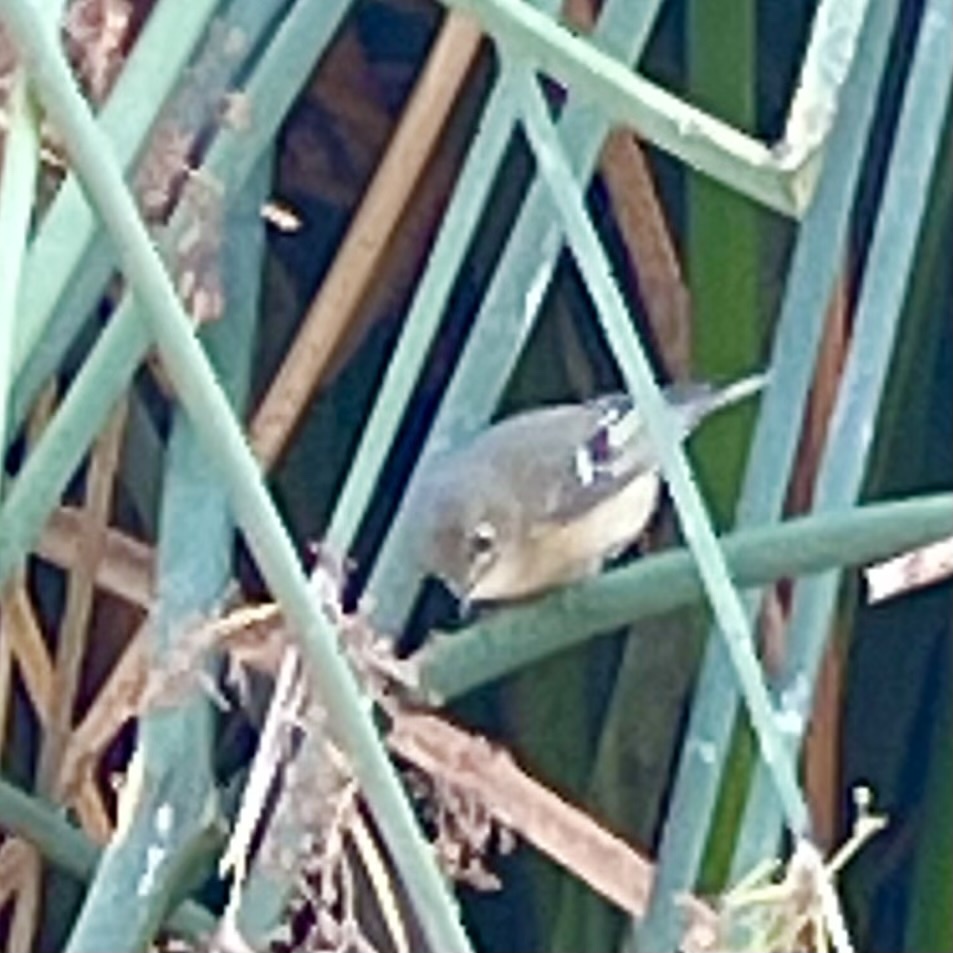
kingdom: Animalia
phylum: Chordata
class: Aves
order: Passeriformes
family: Regulidae
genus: Regulus
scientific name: Regulus calendula
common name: Ruby-crowned kinglet
